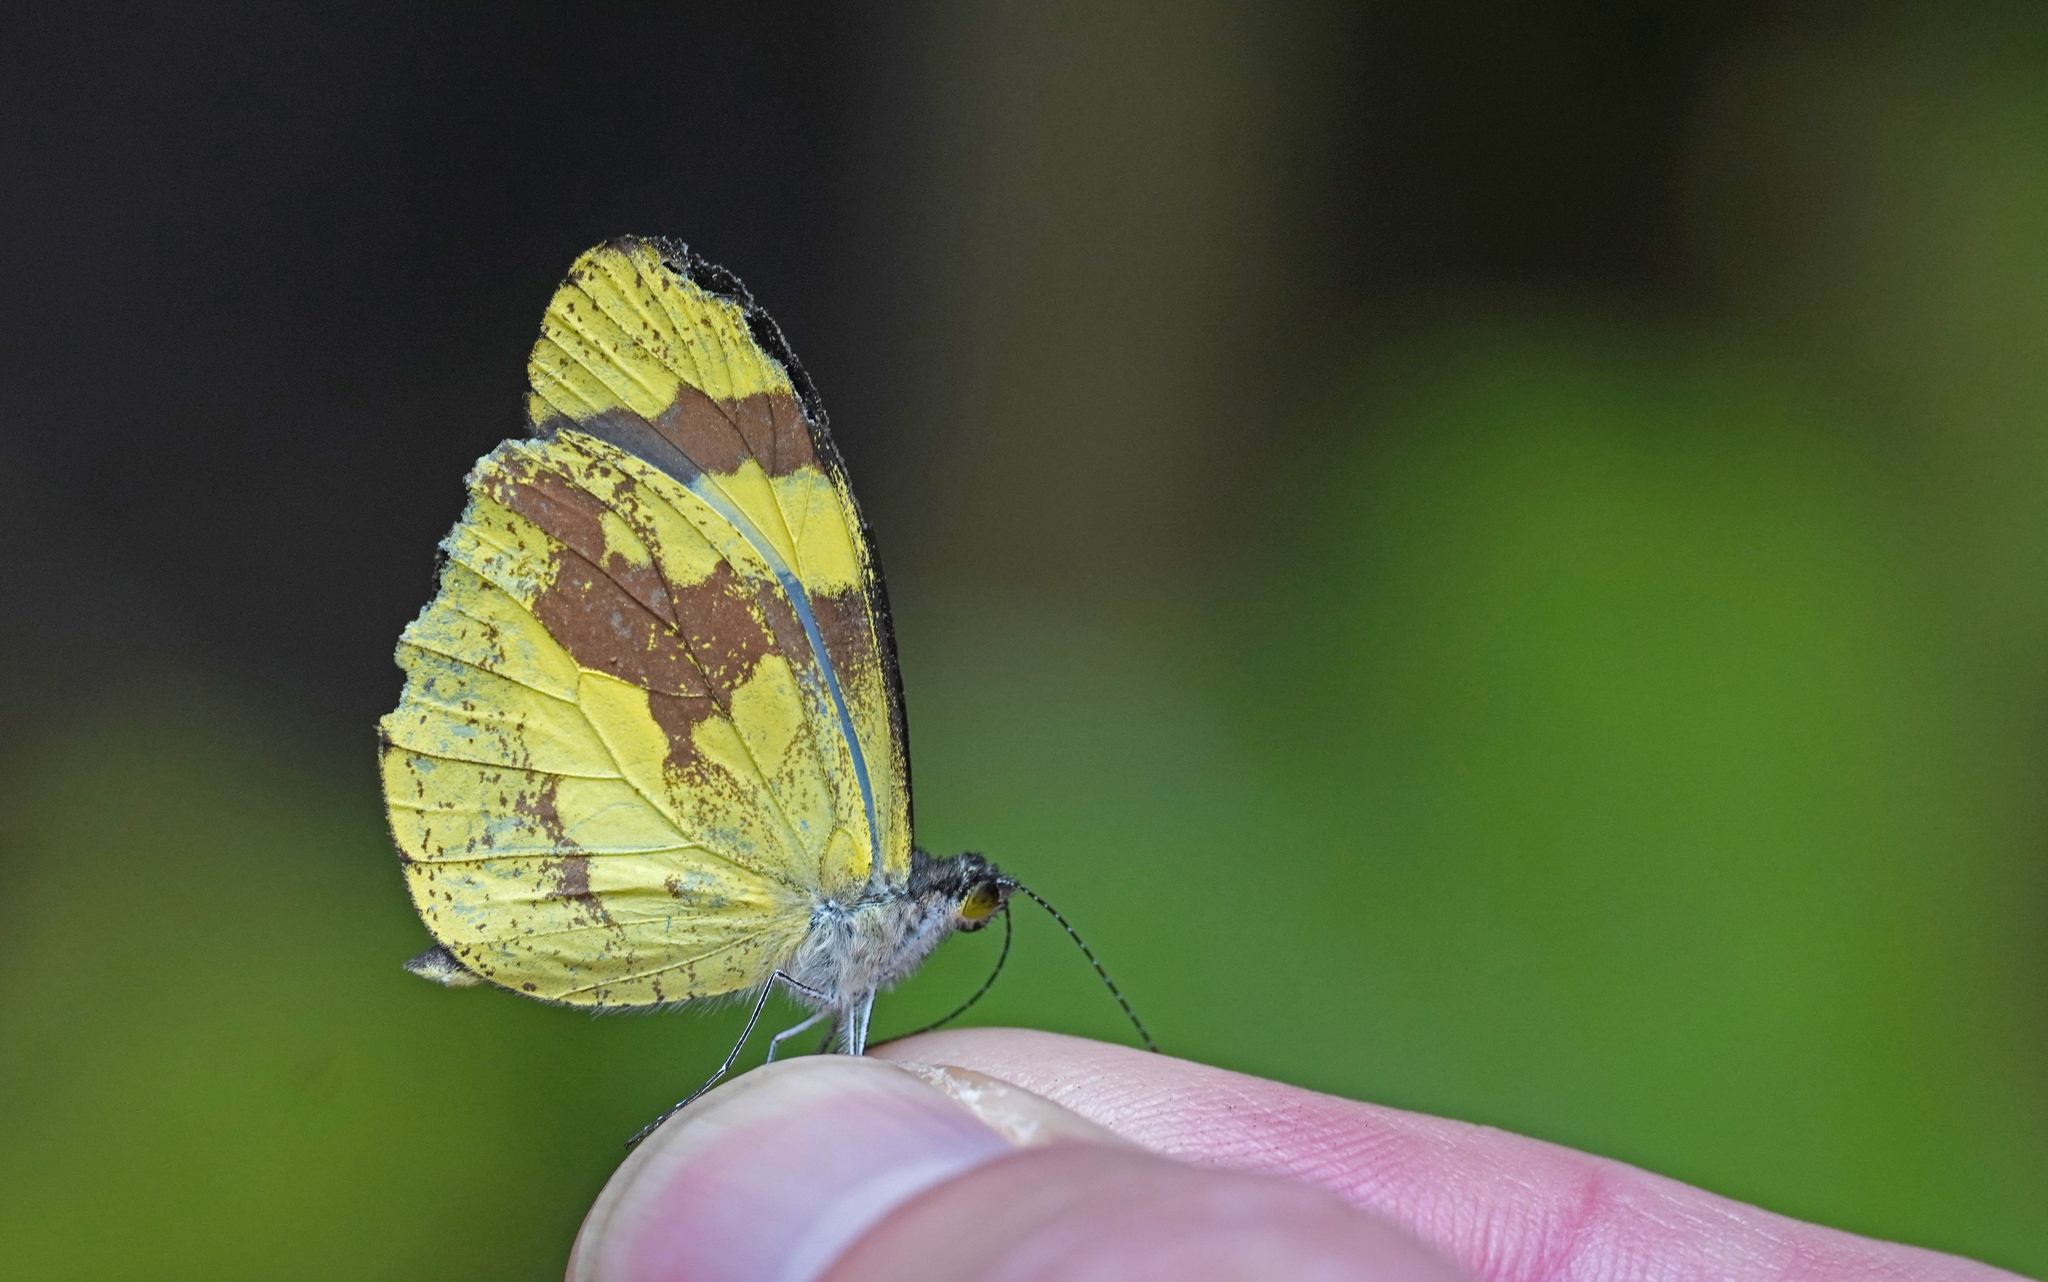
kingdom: Animalia
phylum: Arthropoda
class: Insecta
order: Lepidoptera
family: Pieridae
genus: Dismorphia
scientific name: Dismorphia medora
